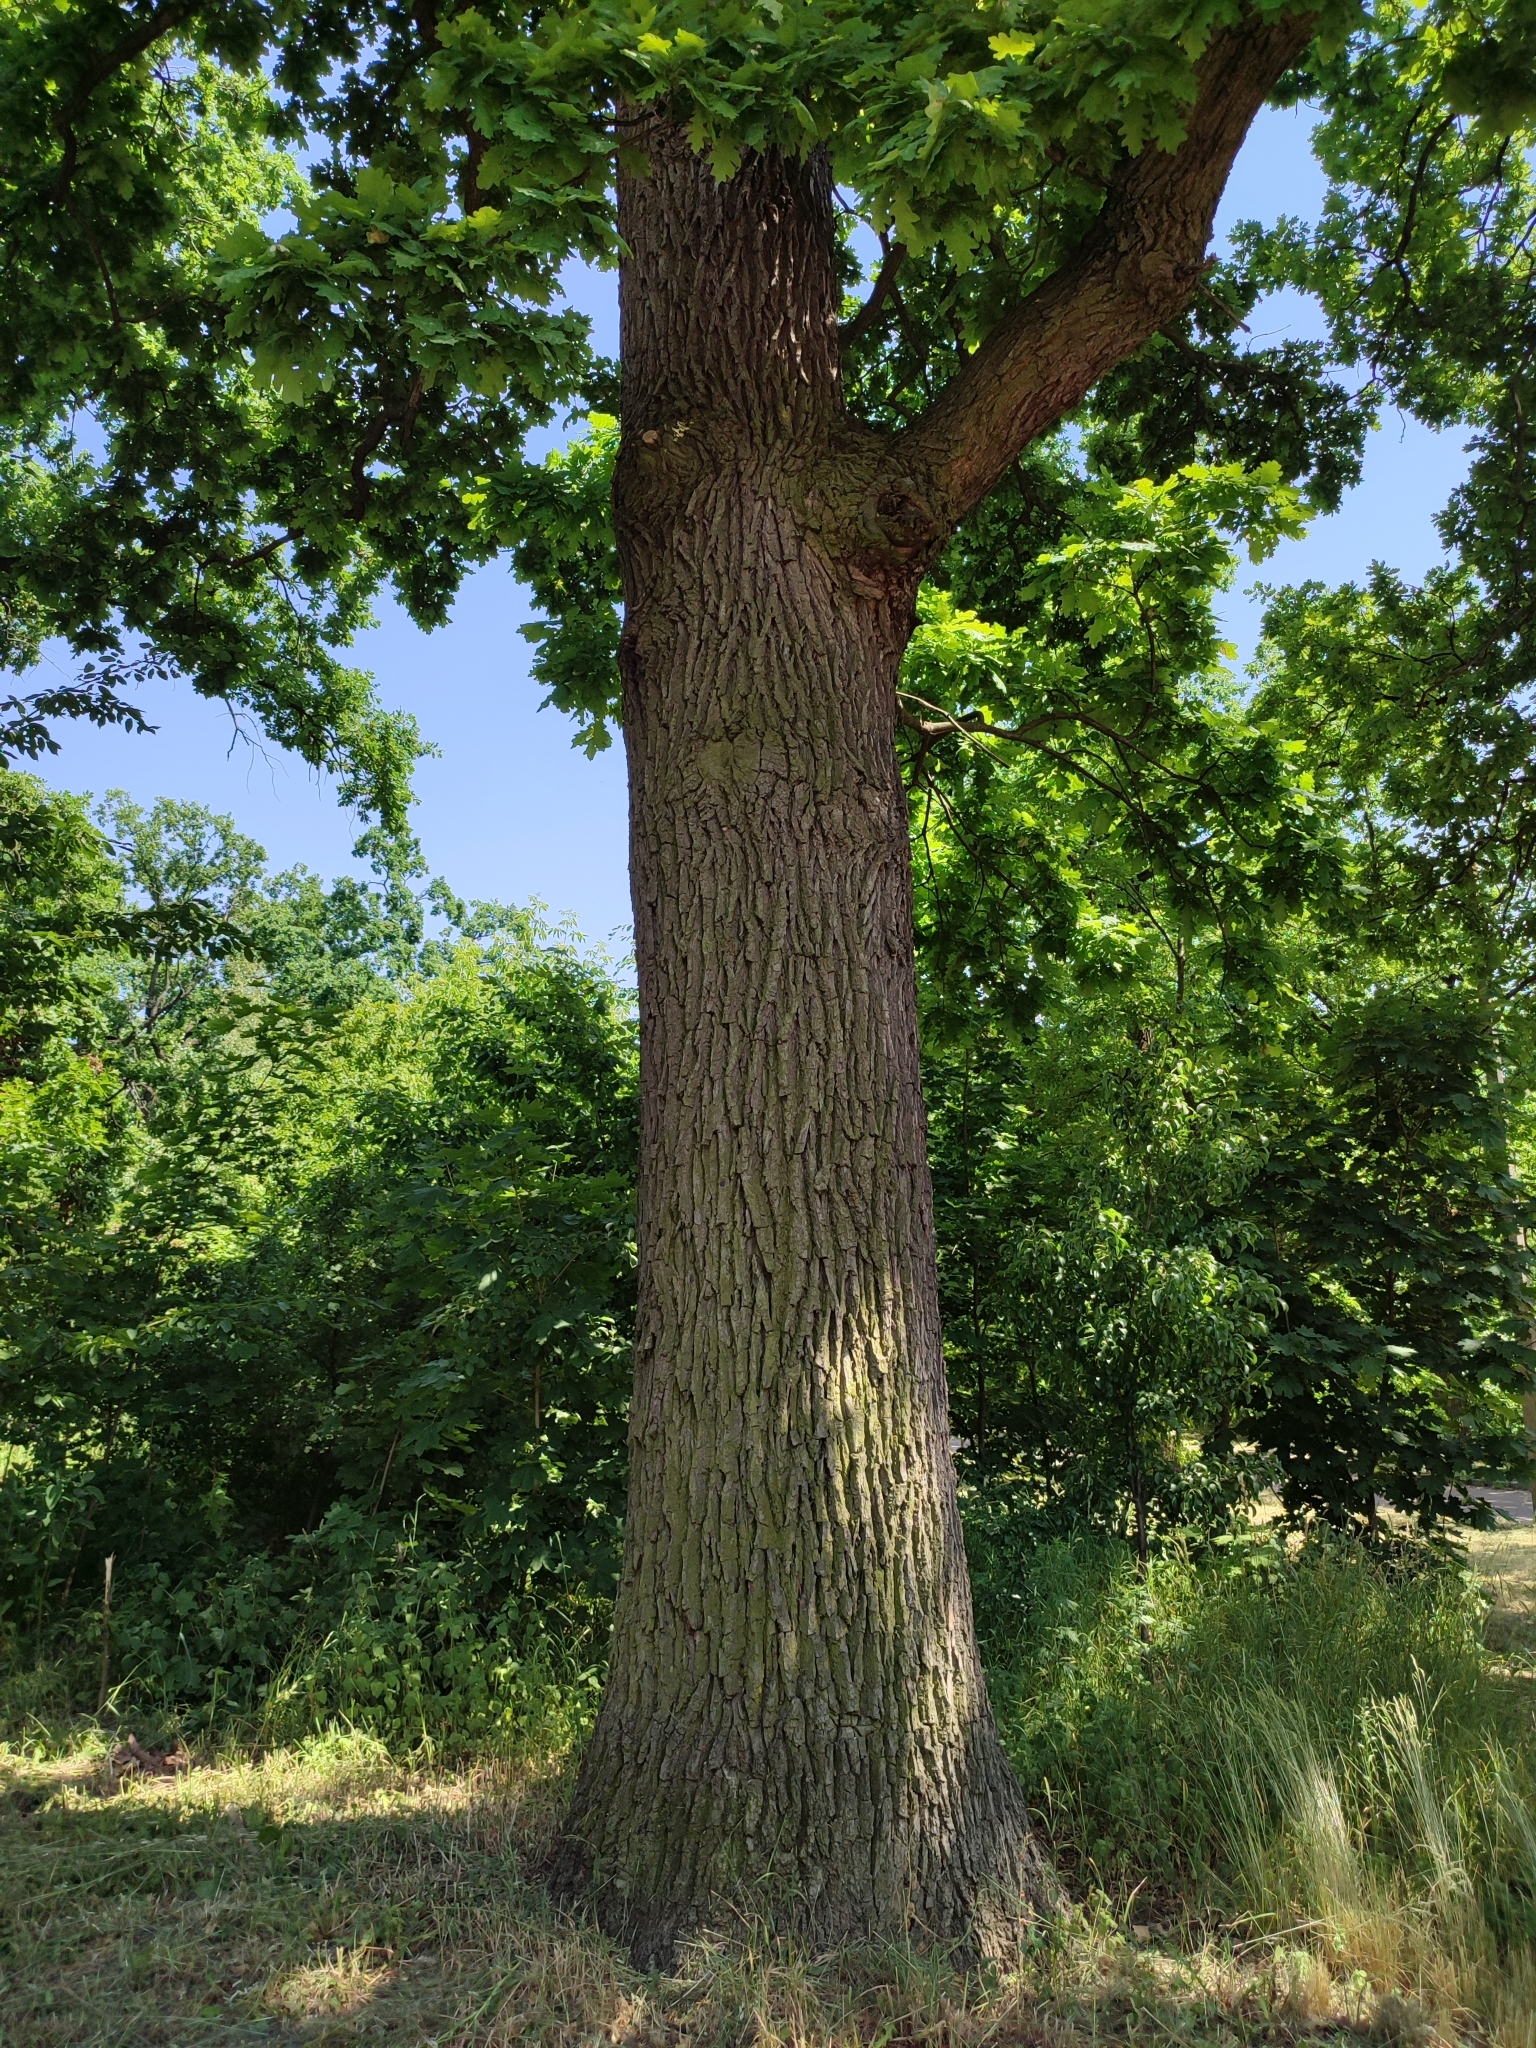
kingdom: Plantae
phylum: Tracheophyta
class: Magnoliopsida
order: Fagales
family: Fagaceae
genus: Quercus
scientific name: Quercus robur
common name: Pedunculate oak
